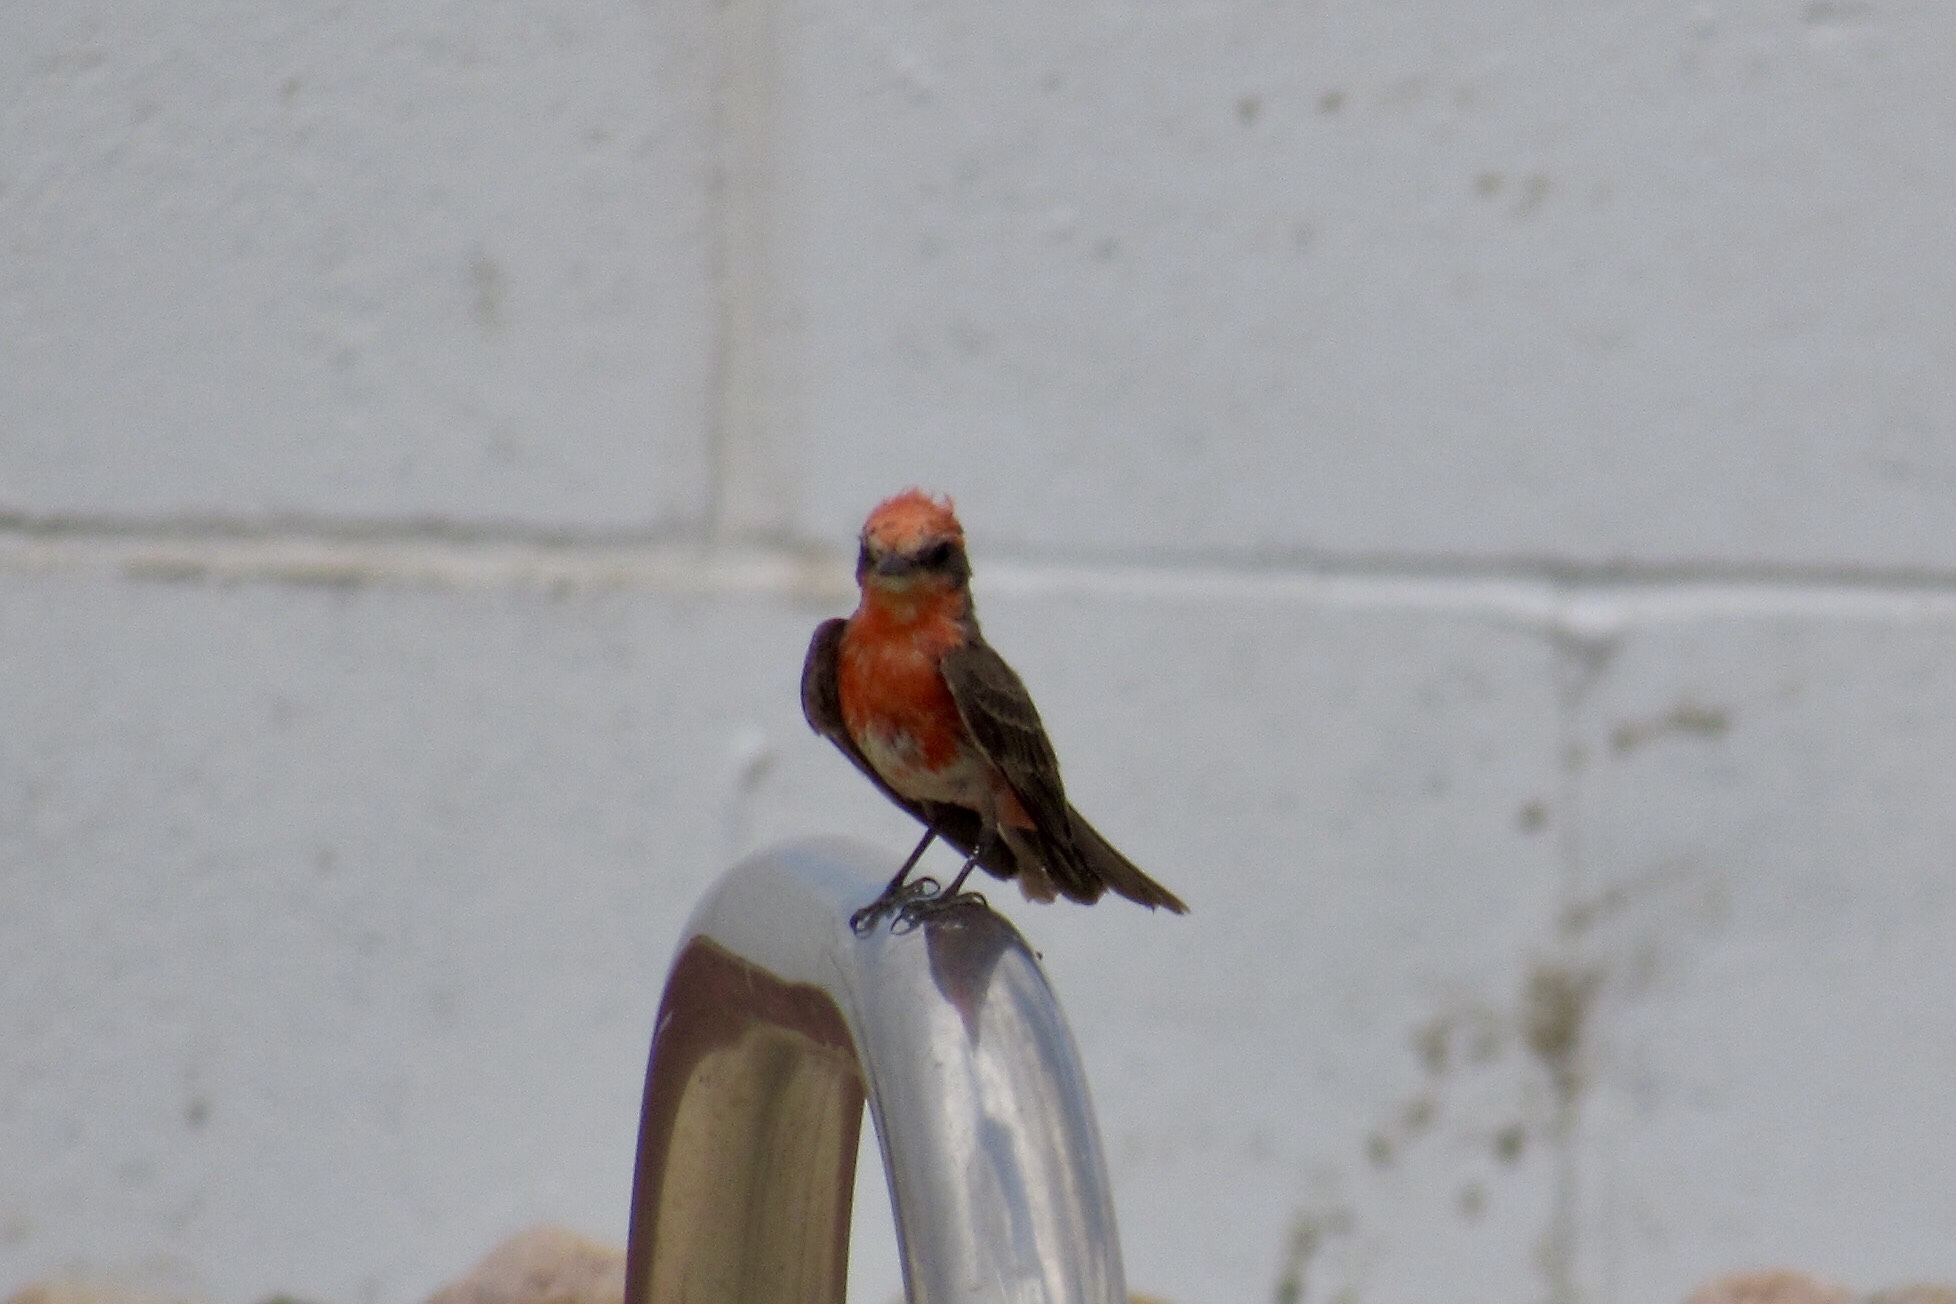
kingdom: Animalia
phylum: Chordata
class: Aves
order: Passeriformes
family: Tyrannidae
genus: Pyrocephalus
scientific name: Pyrocephalus rubinus
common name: Vermilion flycatcher
